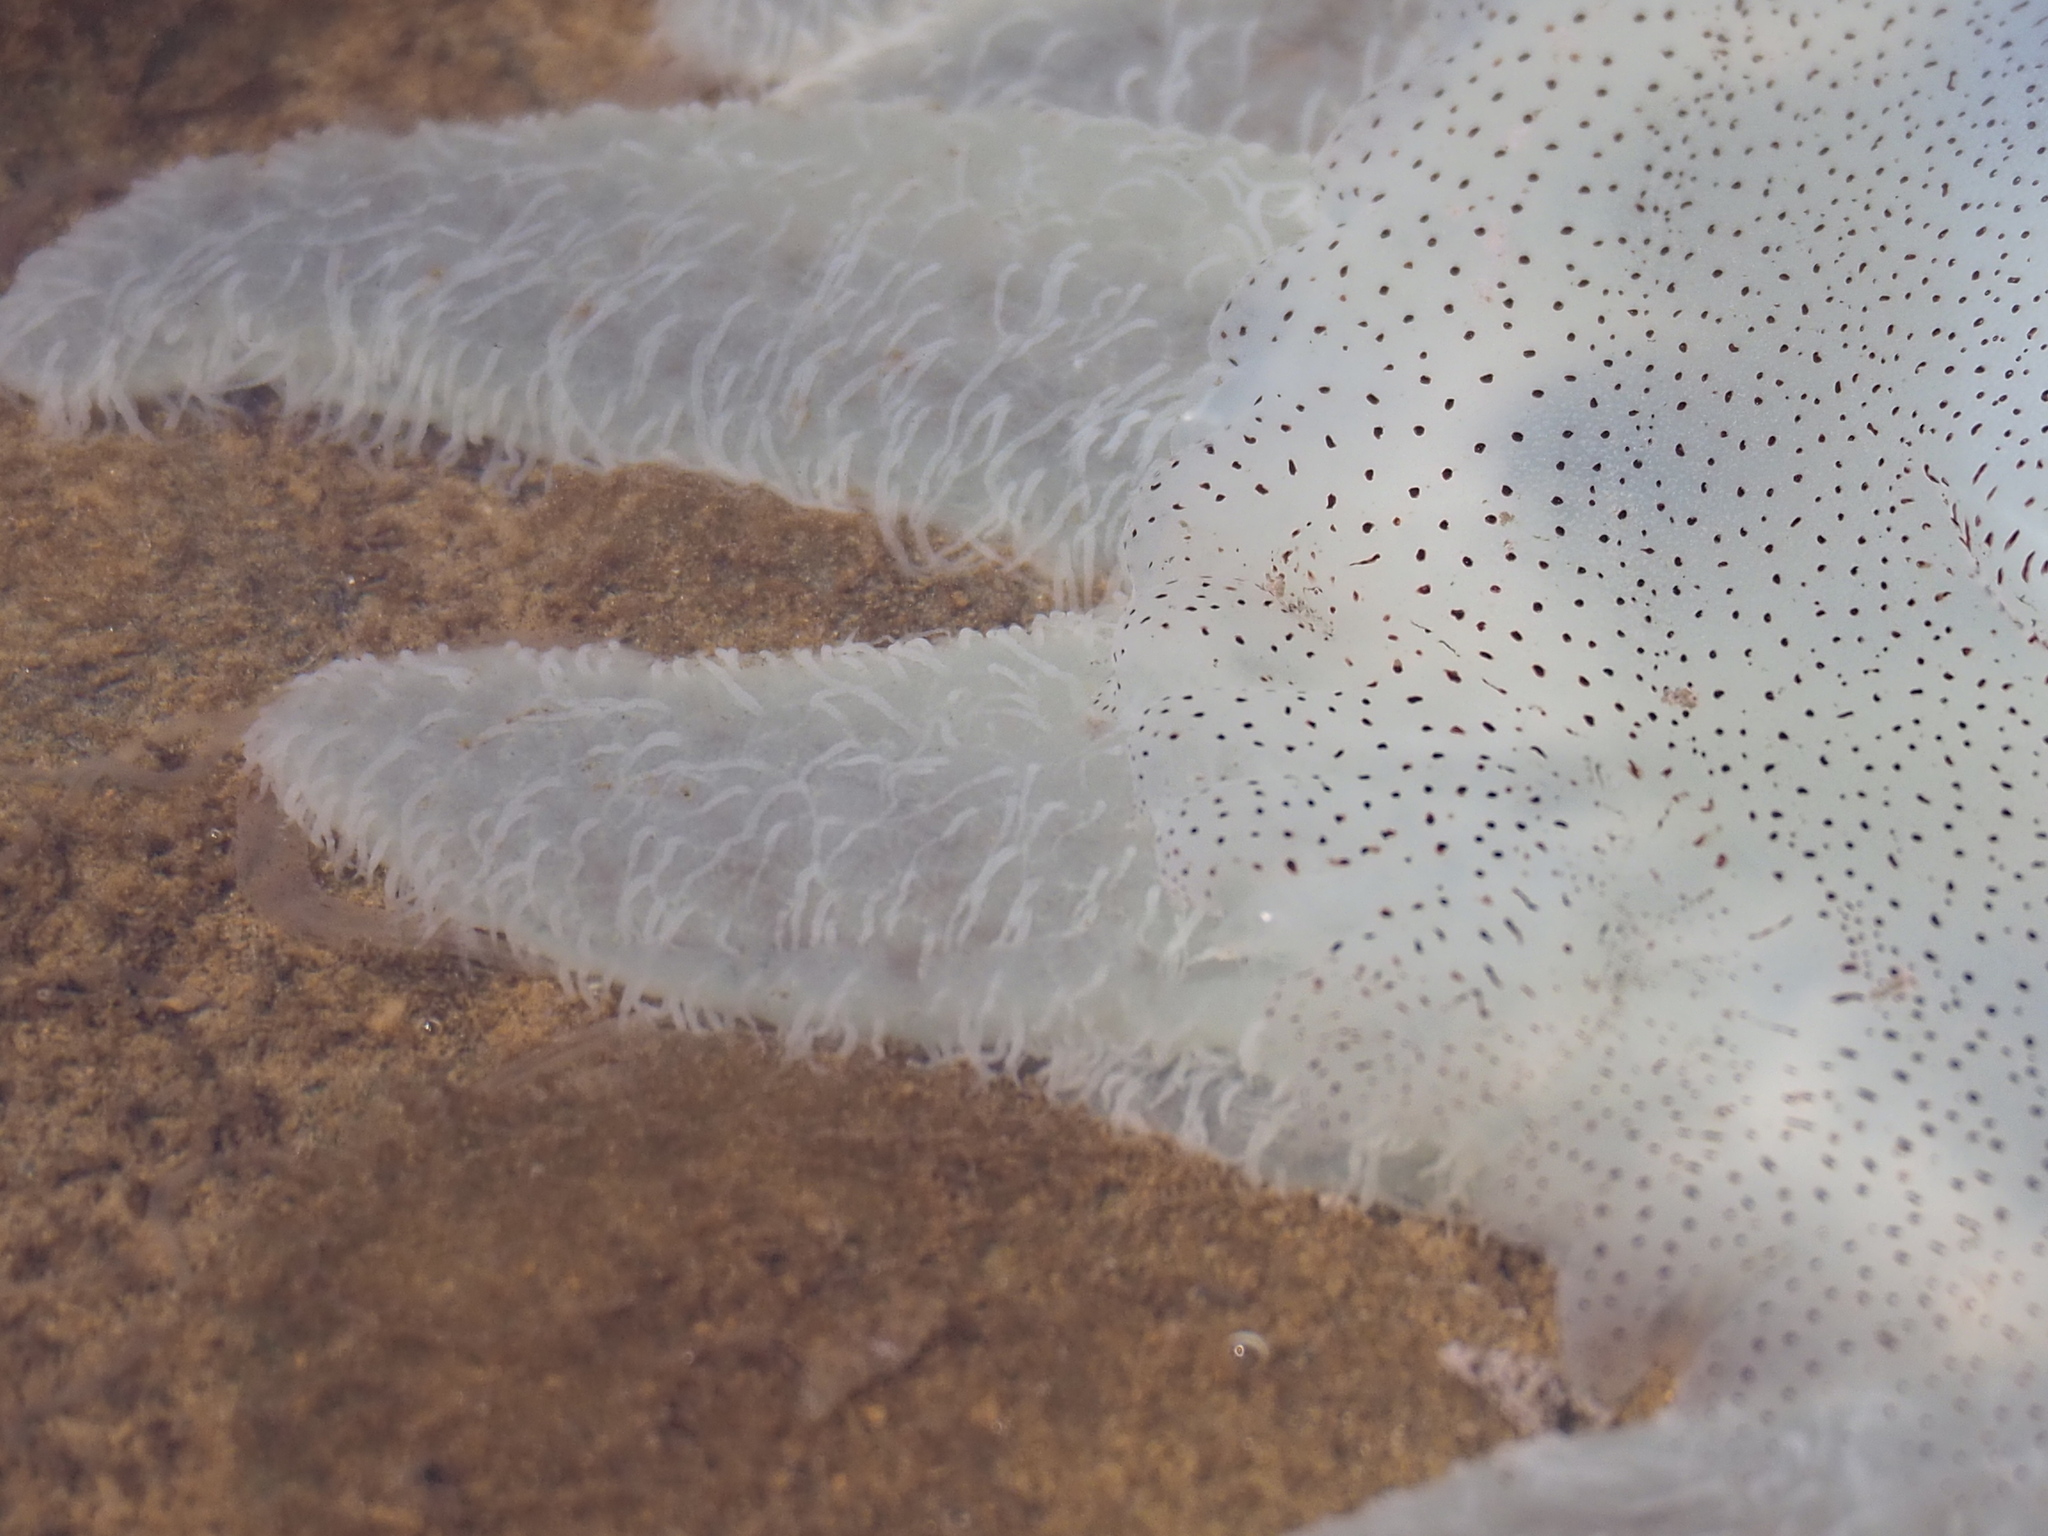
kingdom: Animalia
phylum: Cnidaria
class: Scyphozoa
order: Rhizostomeae
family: Catostylidae
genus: Acromitus
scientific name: Acromitus flagellatus
